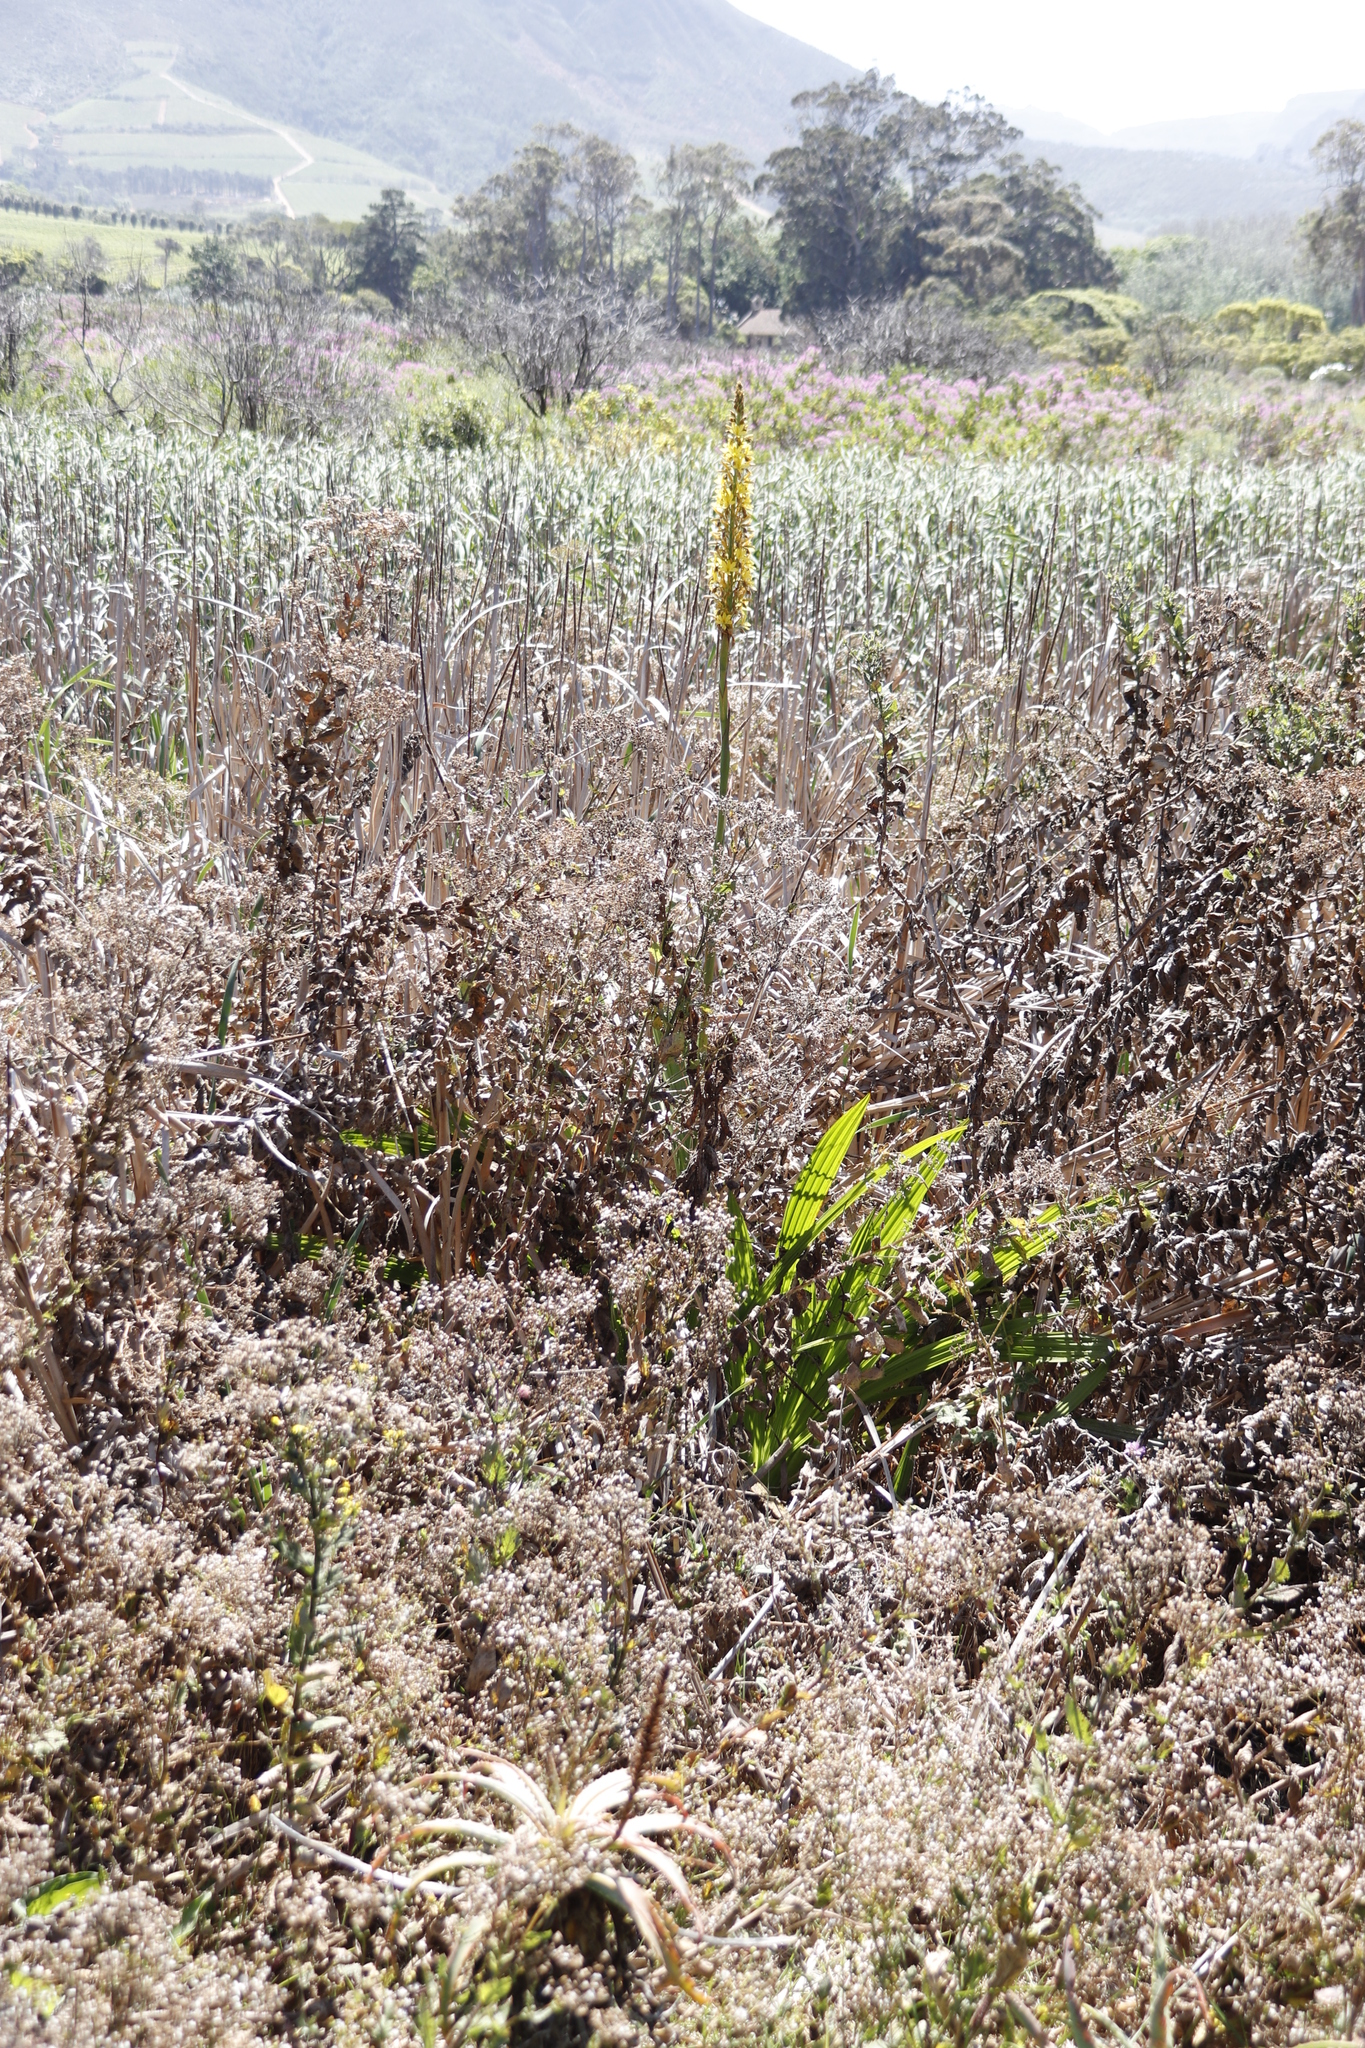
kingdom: Plantae
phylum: Tracheophyta
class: Liliopsida
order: Commelinales
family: Haemodoraceae
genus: Wachendorfia
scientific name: Wachendorfia thyrsiflora
